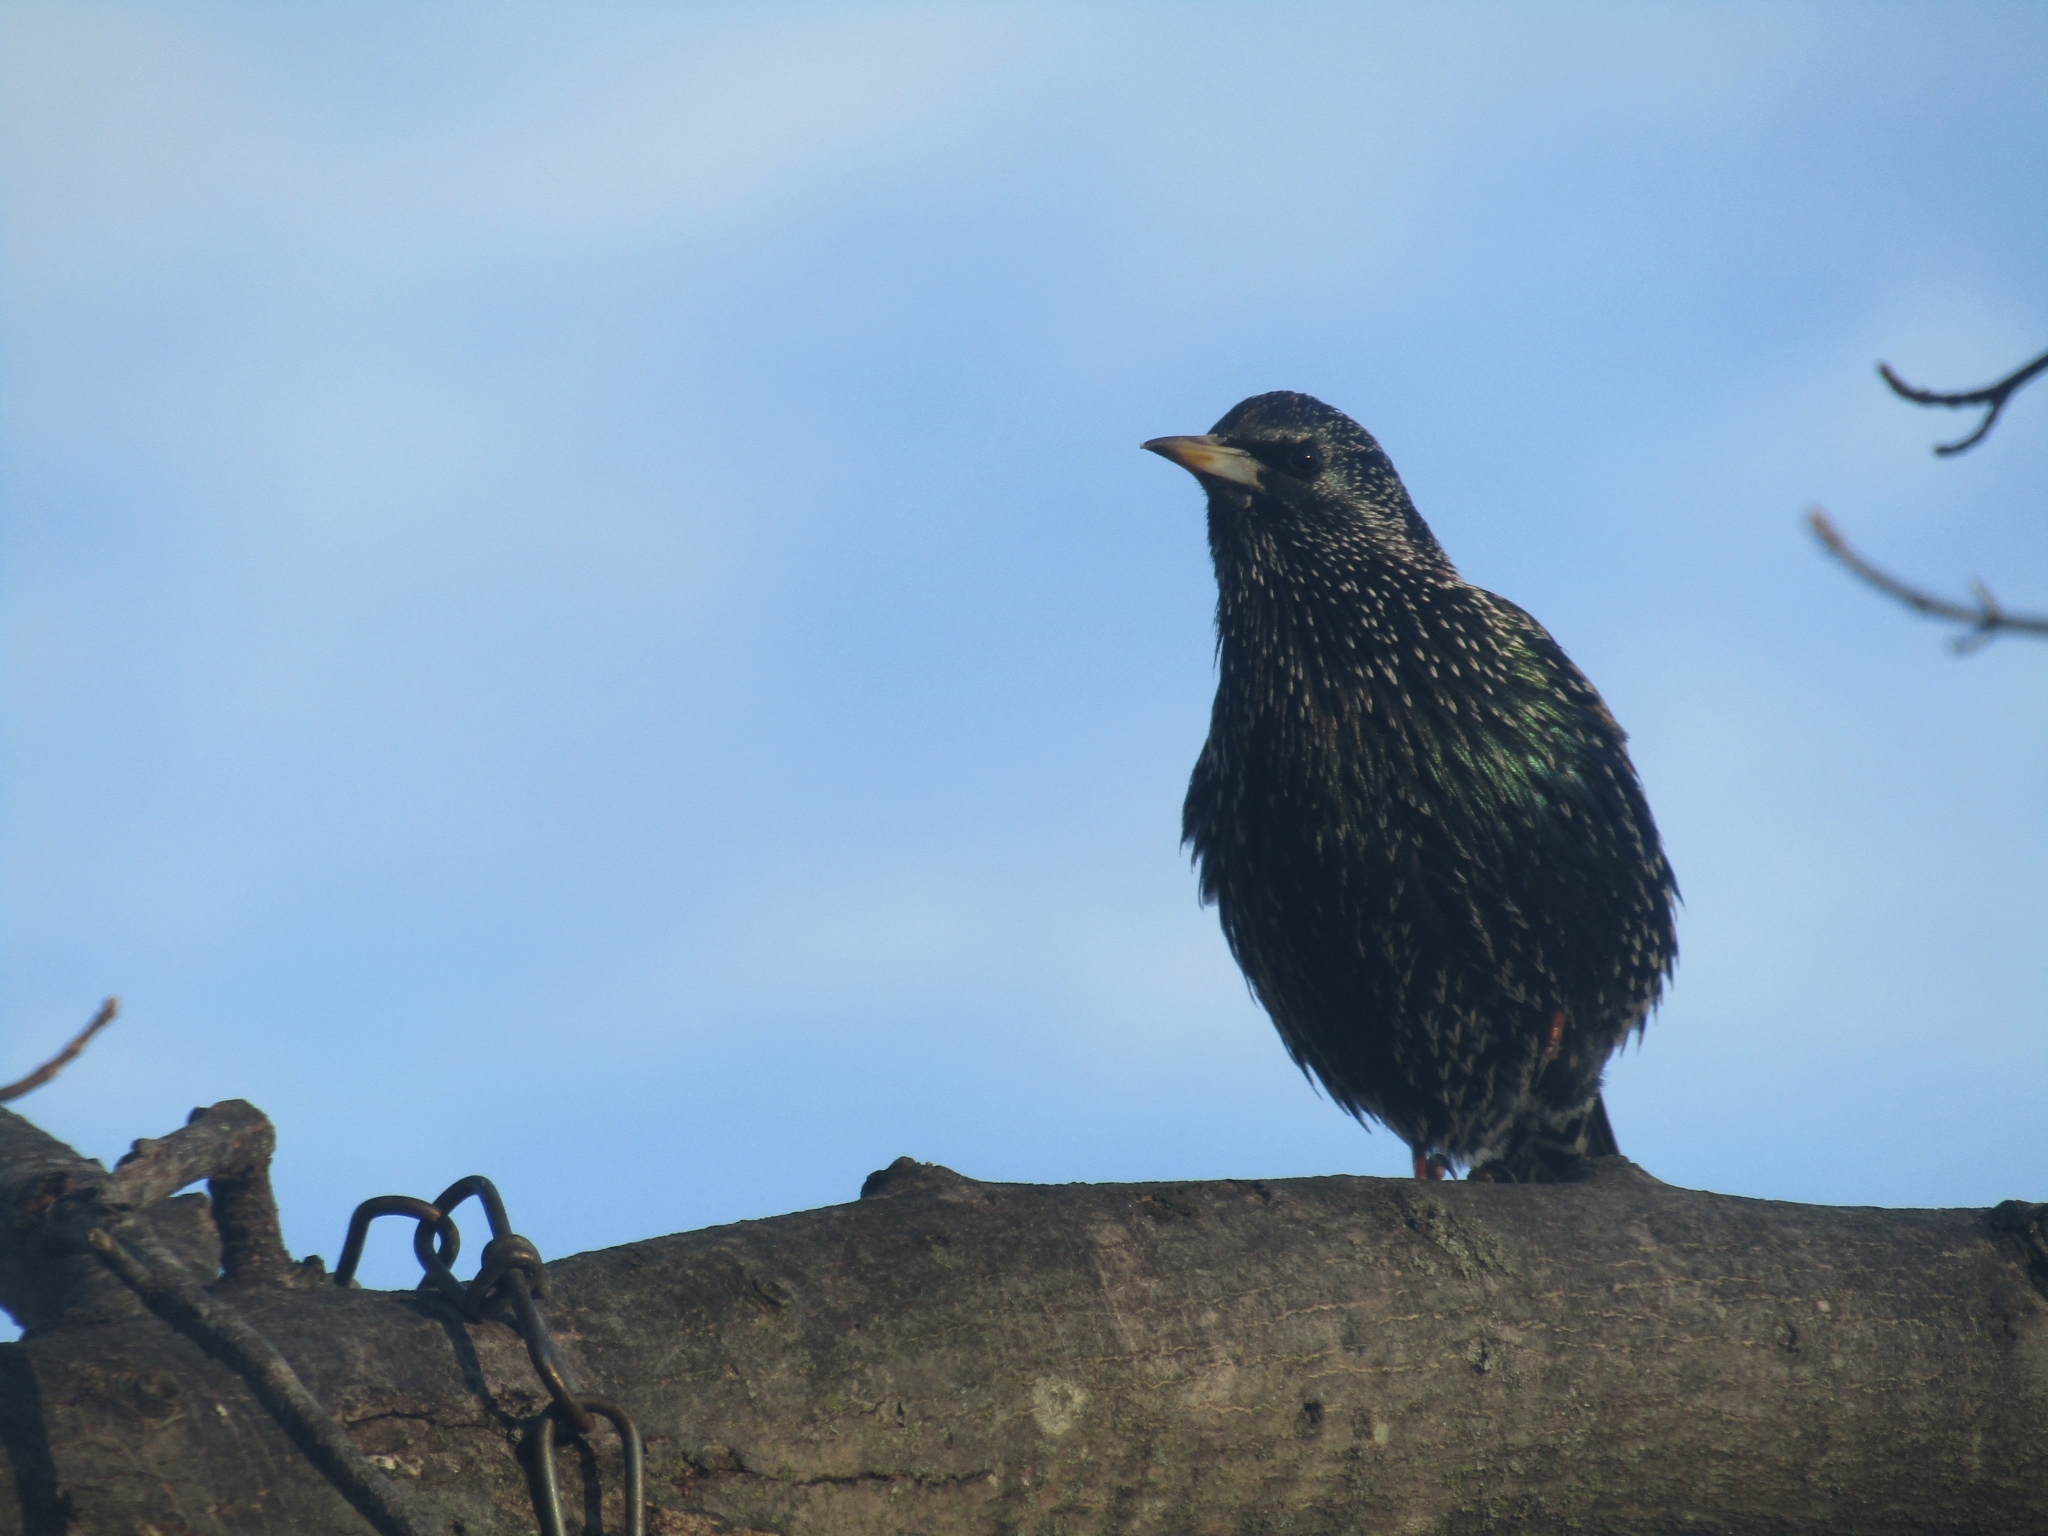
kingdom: Animalia
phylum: Chordata
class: Aves
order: Passeriformes
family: Sturnidae
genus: Sturnus
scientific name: Sturnus vulgaris
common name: Common starling
